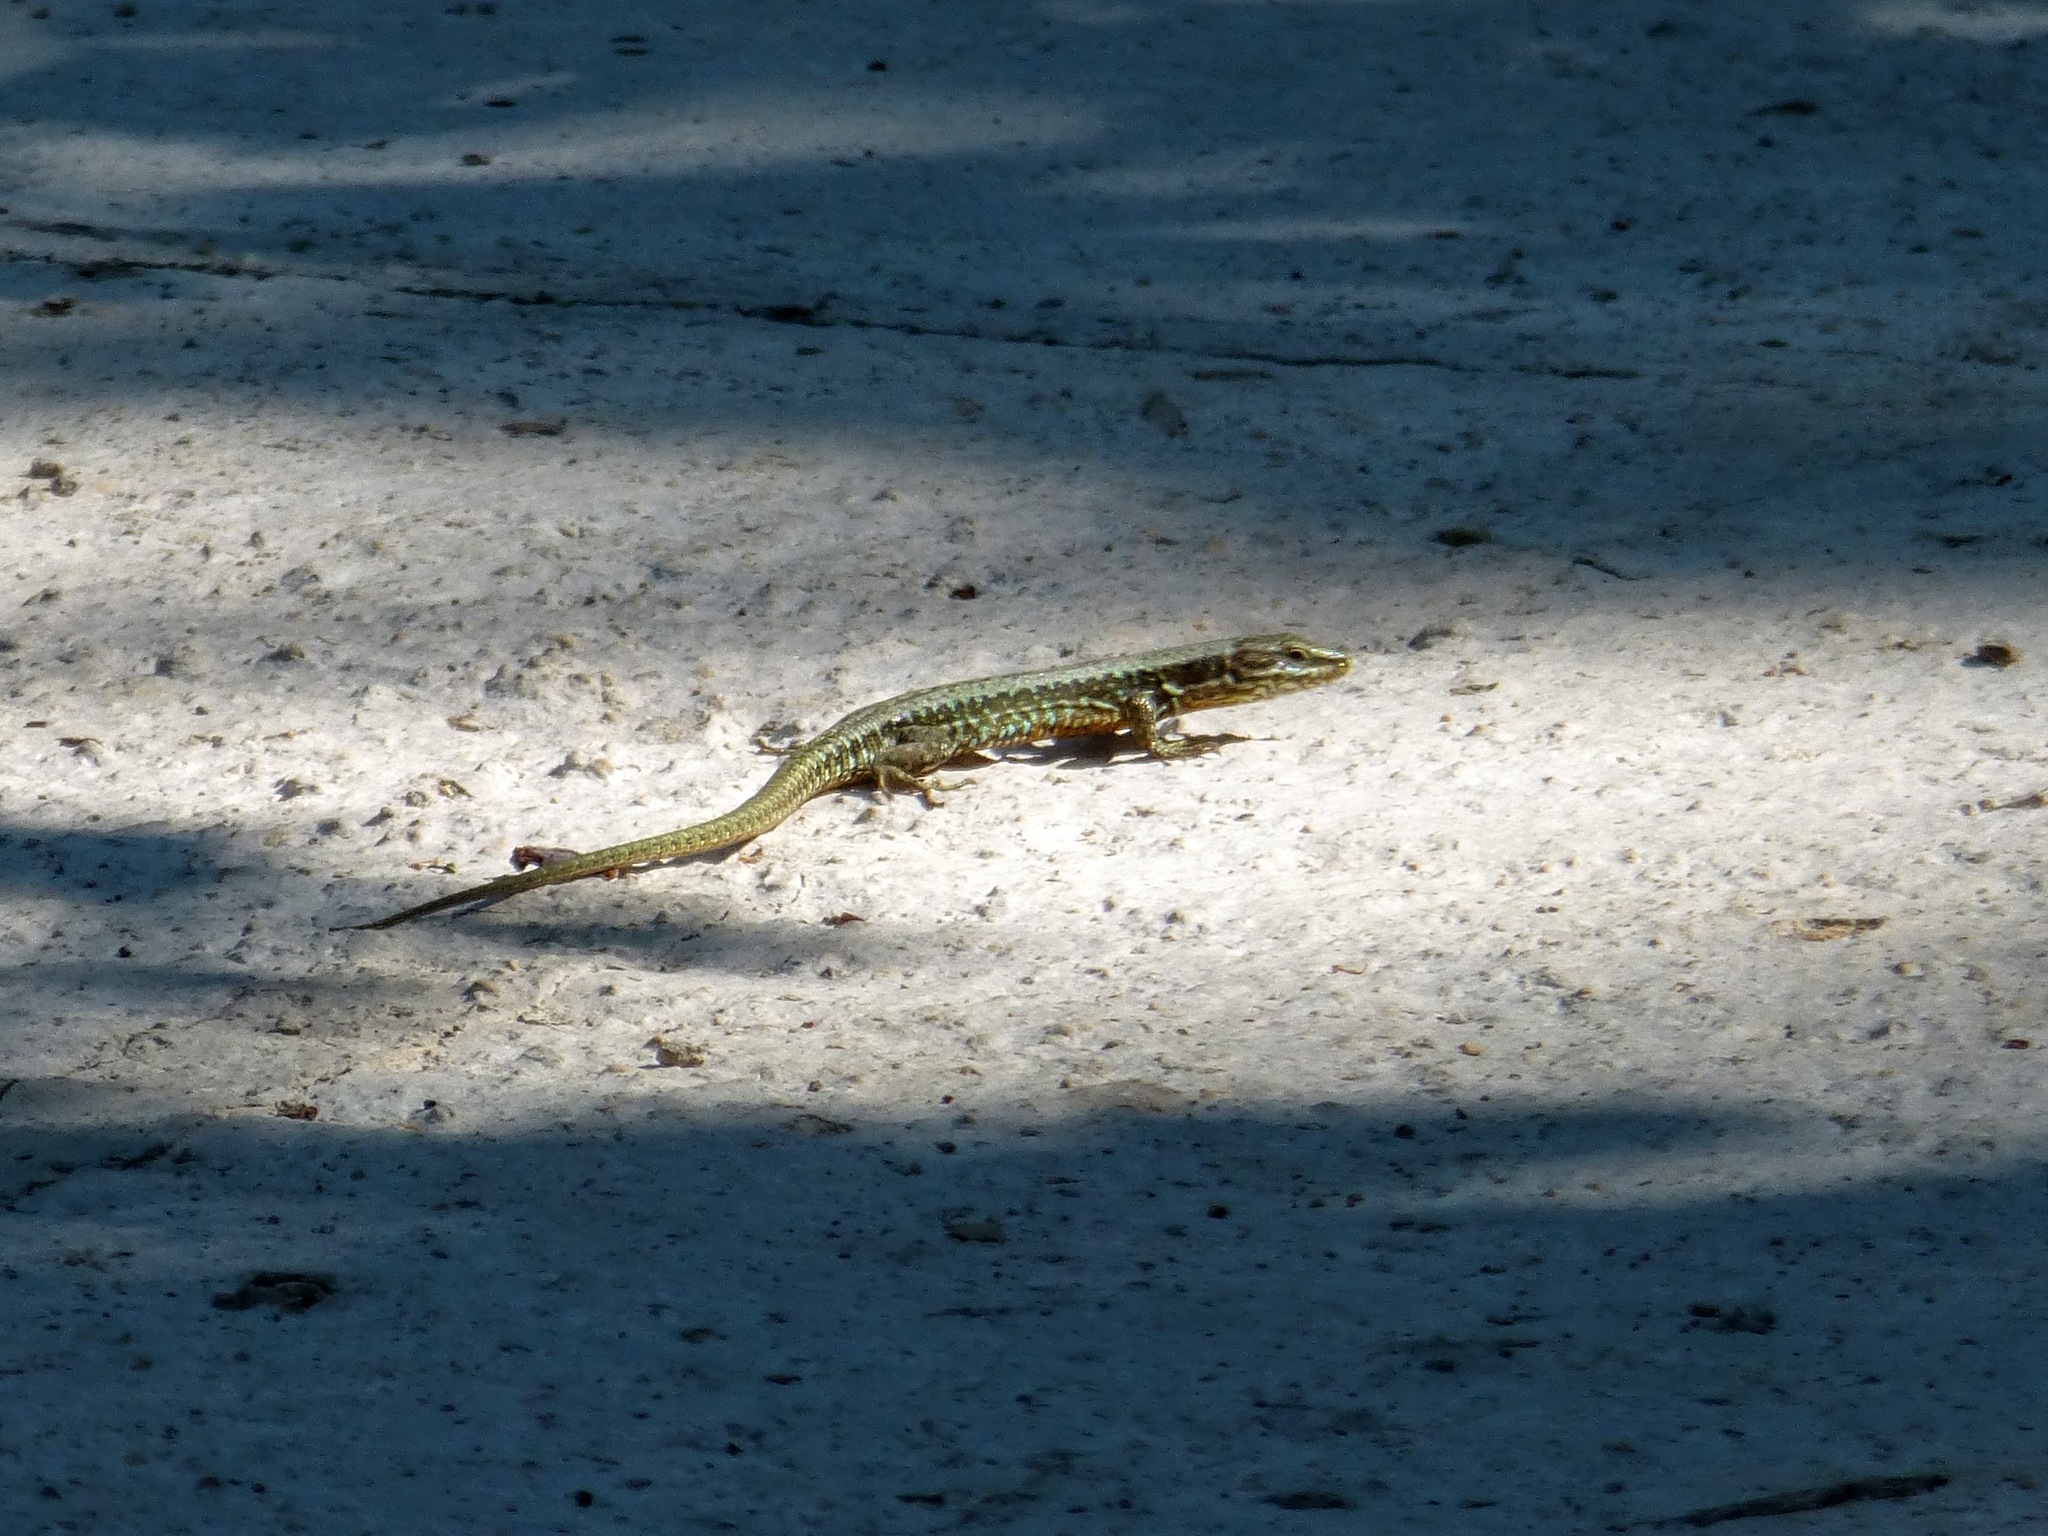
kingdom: Animalia
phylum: Chordata
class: Squamata
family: Lacertidae
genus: Podarcis
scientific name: Podarcis muralis
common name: Common wall lizard
